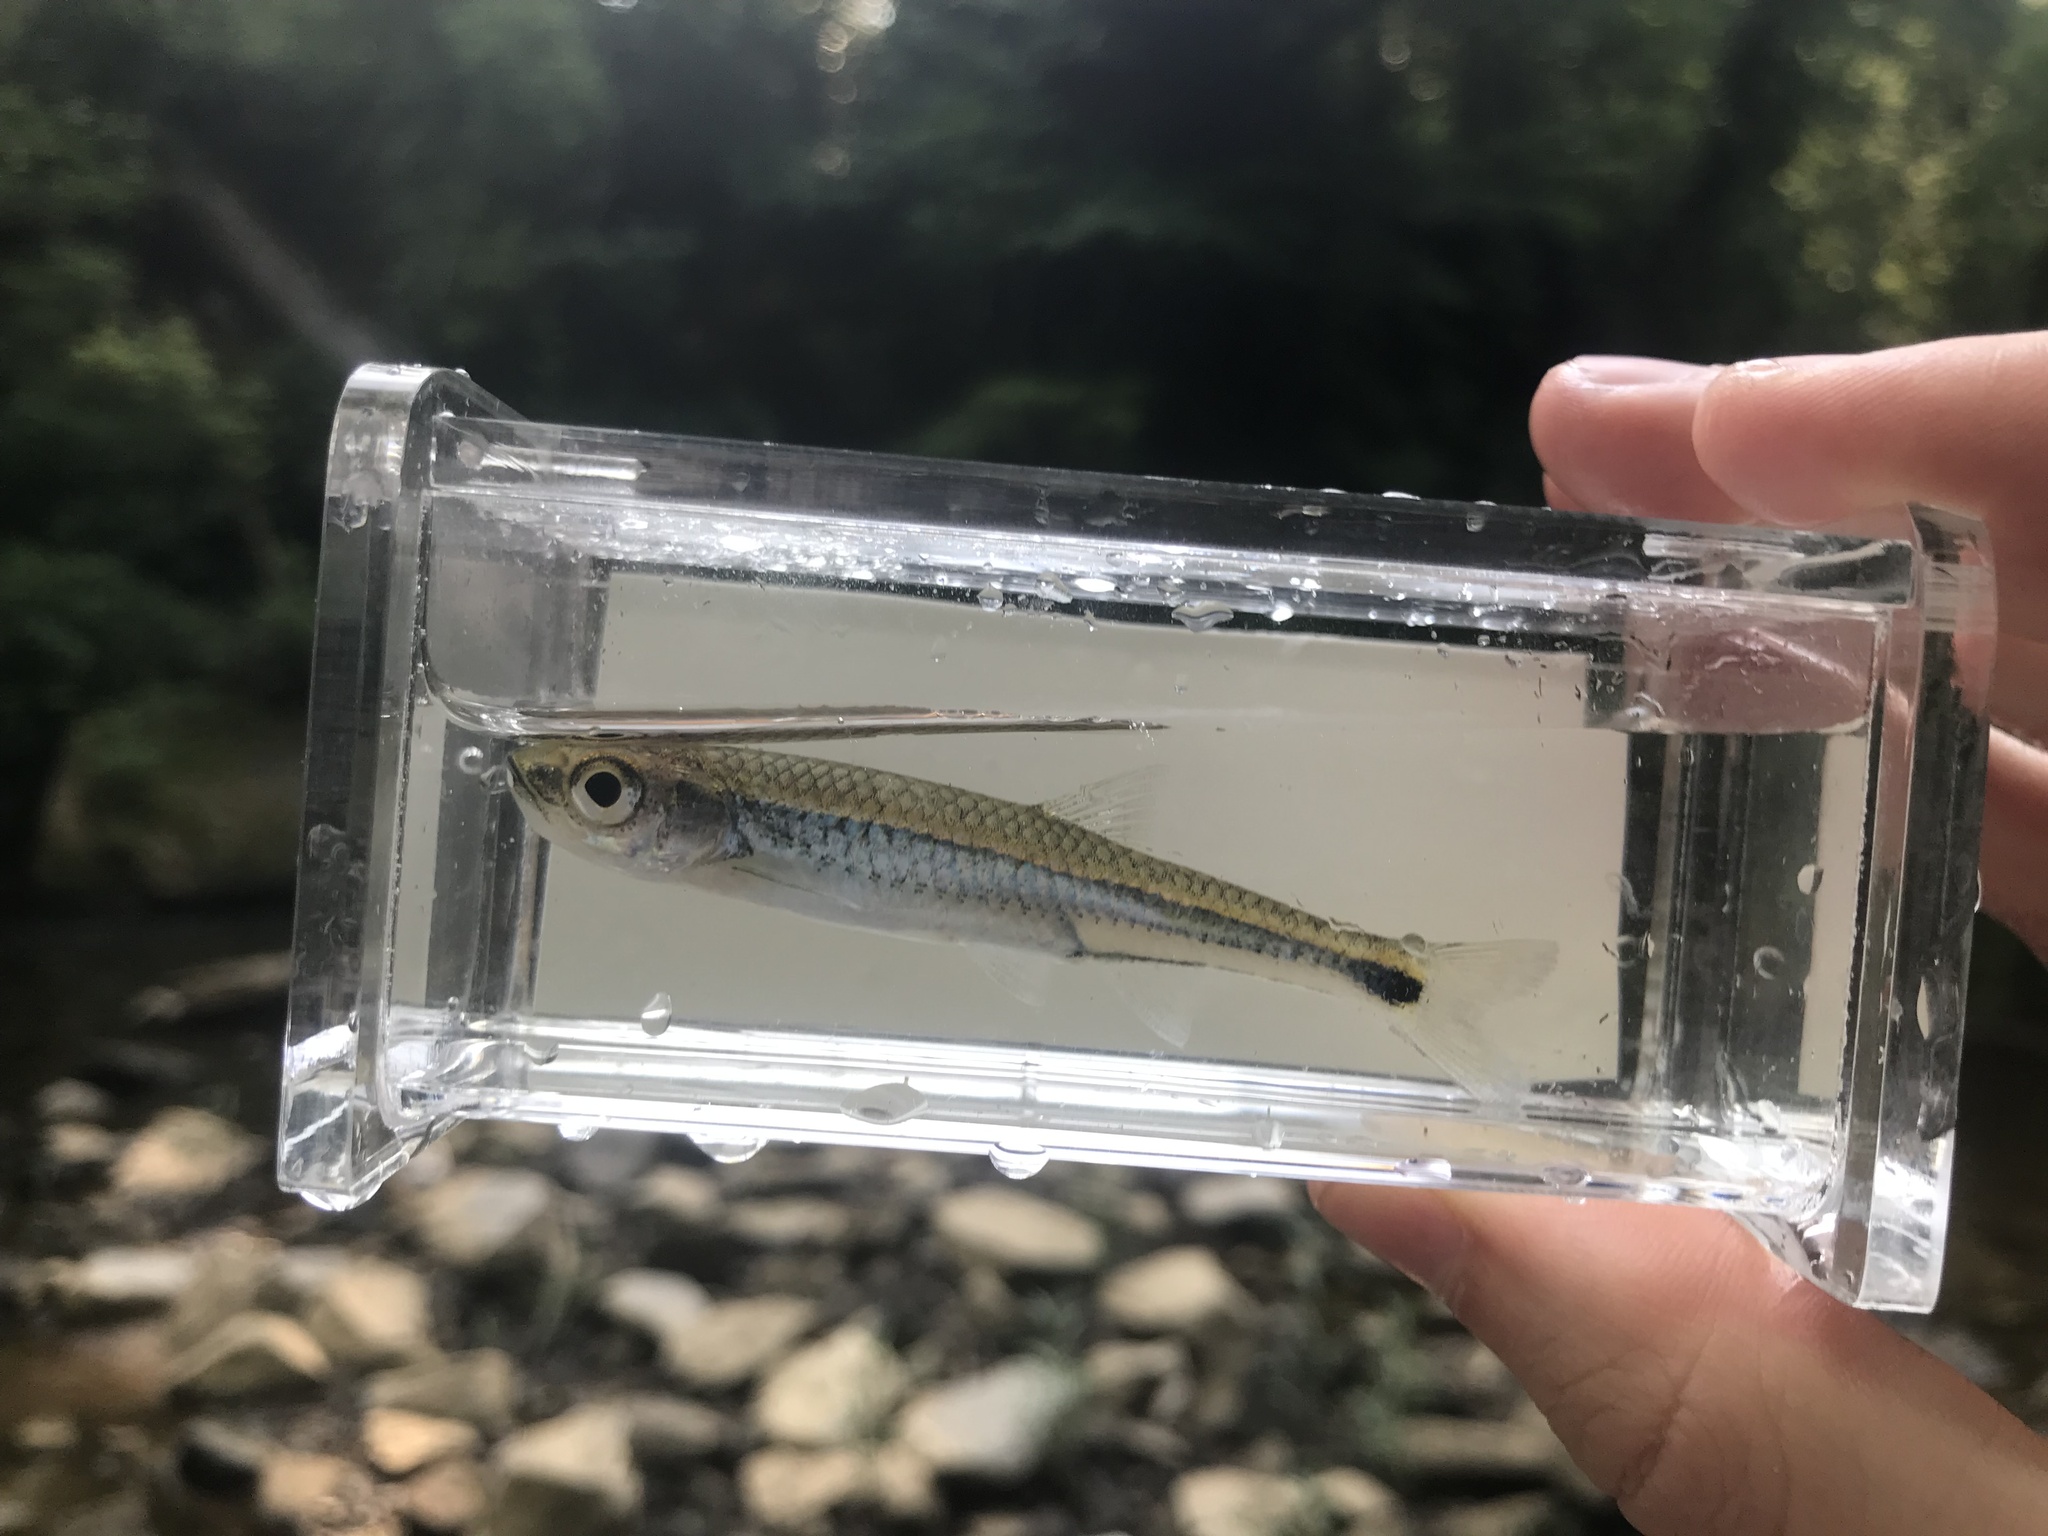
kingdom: Animalia
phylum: Chordata
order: Cypriniformes
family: Cyprinidae
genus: Notropis
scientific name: Notropis stilbius
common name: Silverstripe shiner
